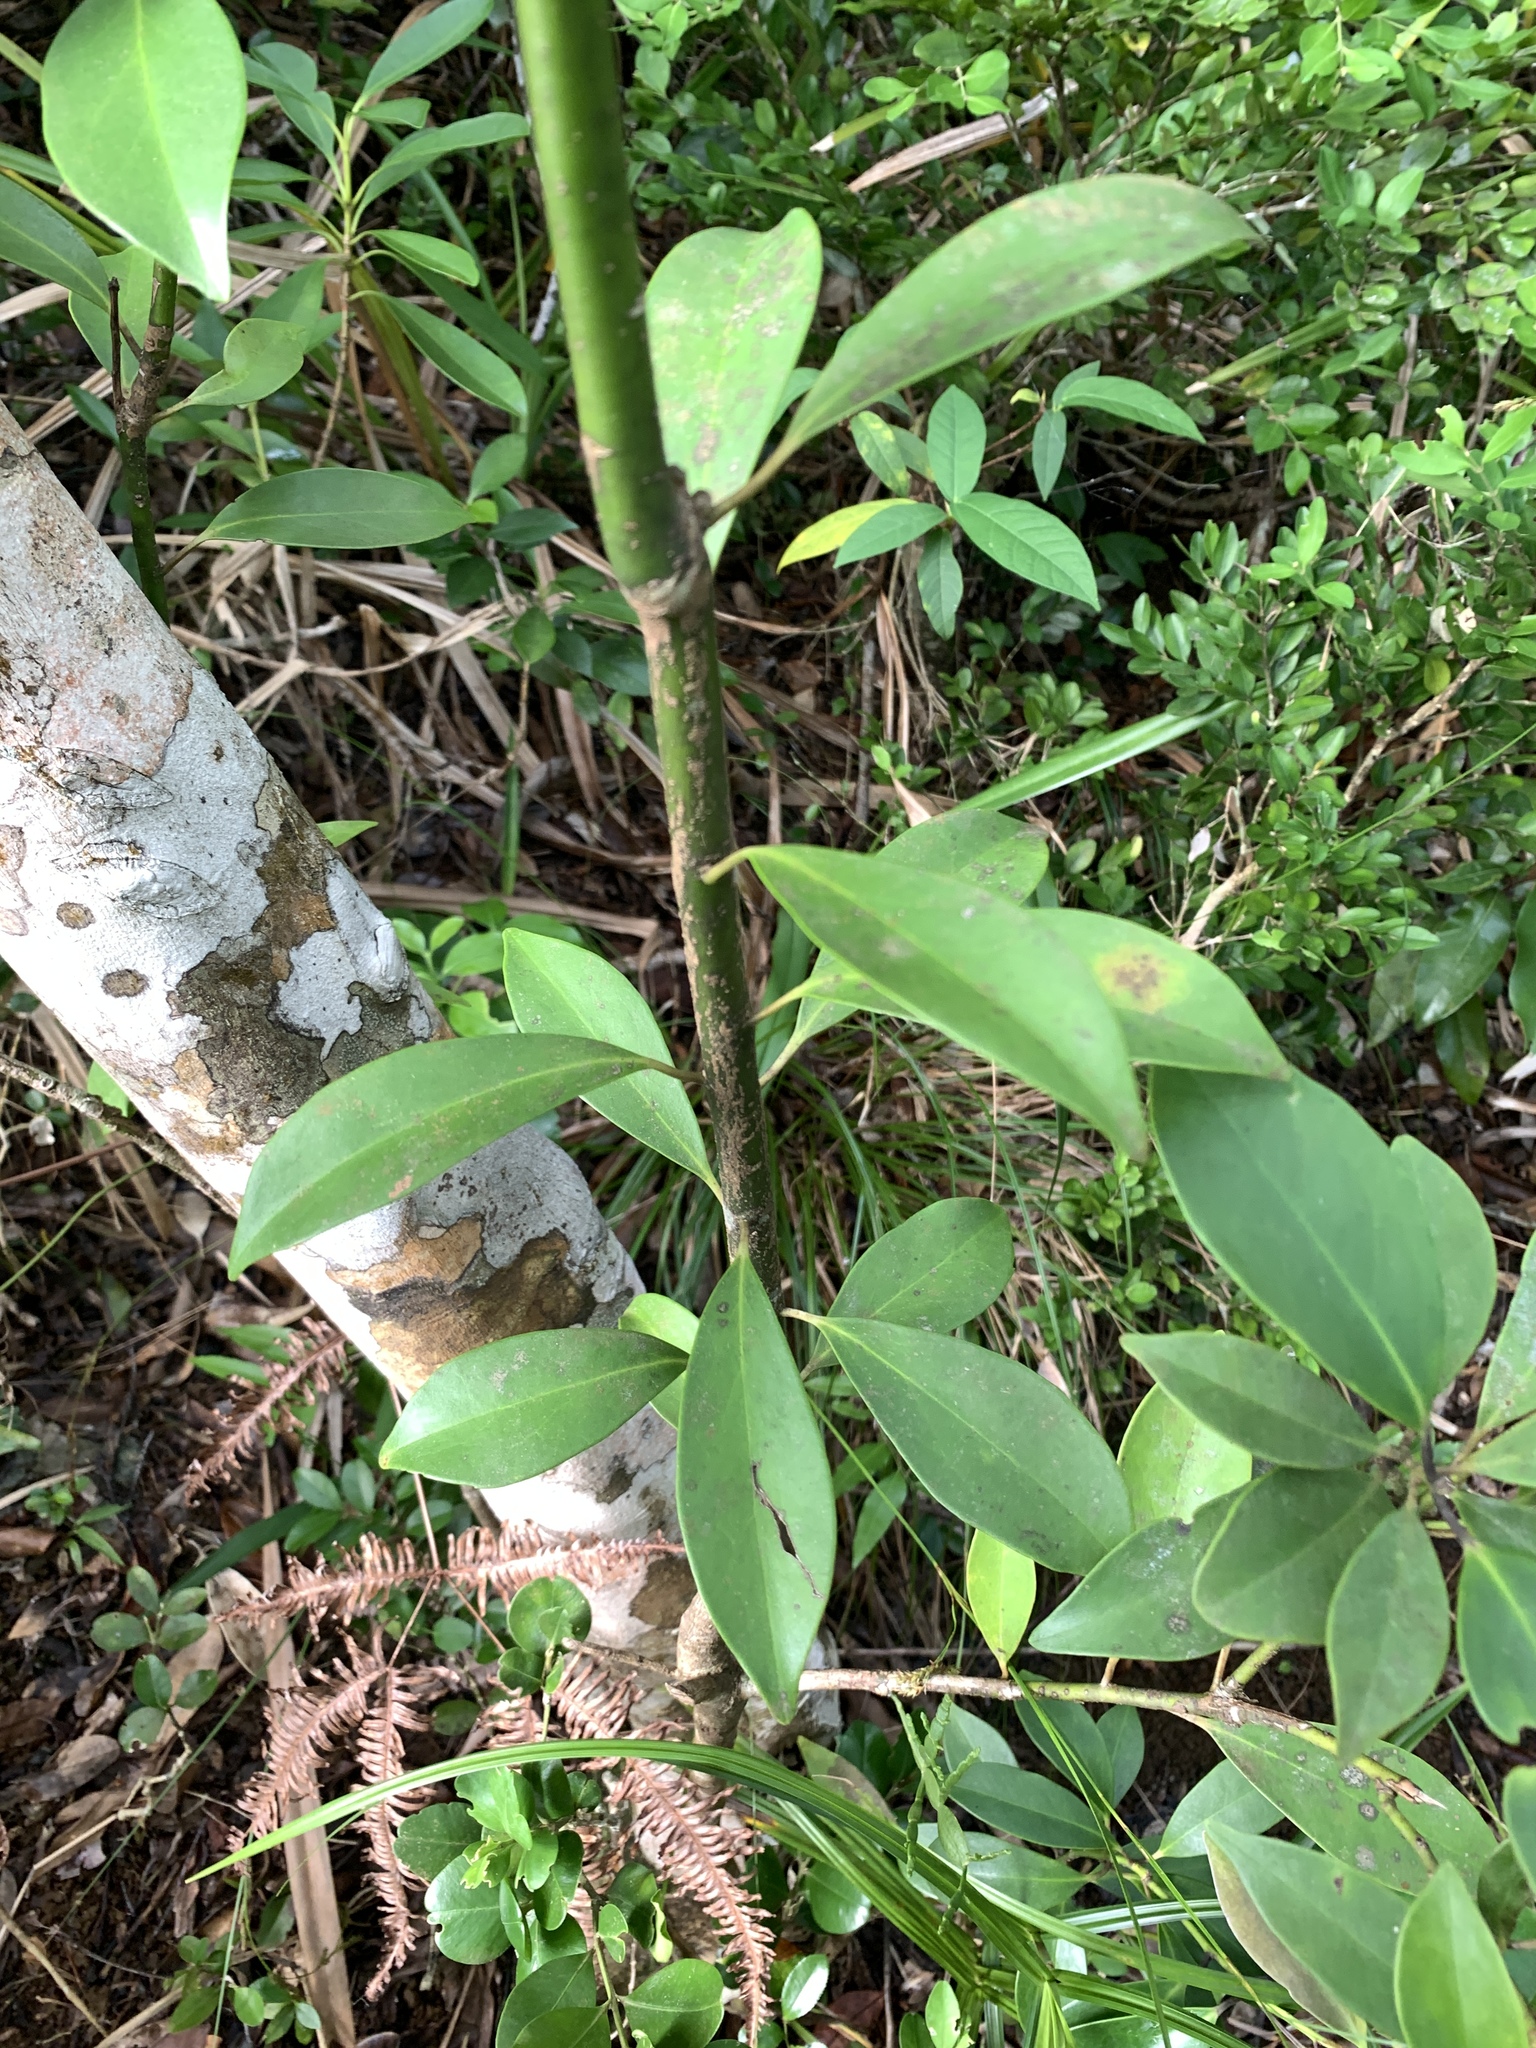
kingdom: Plantae
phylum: Tracheophyta
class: Magnoliopsida
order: Aquifoliales
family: Aquifoliaceae
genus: Ilex
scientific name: Ilex integra
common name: Mochitree
